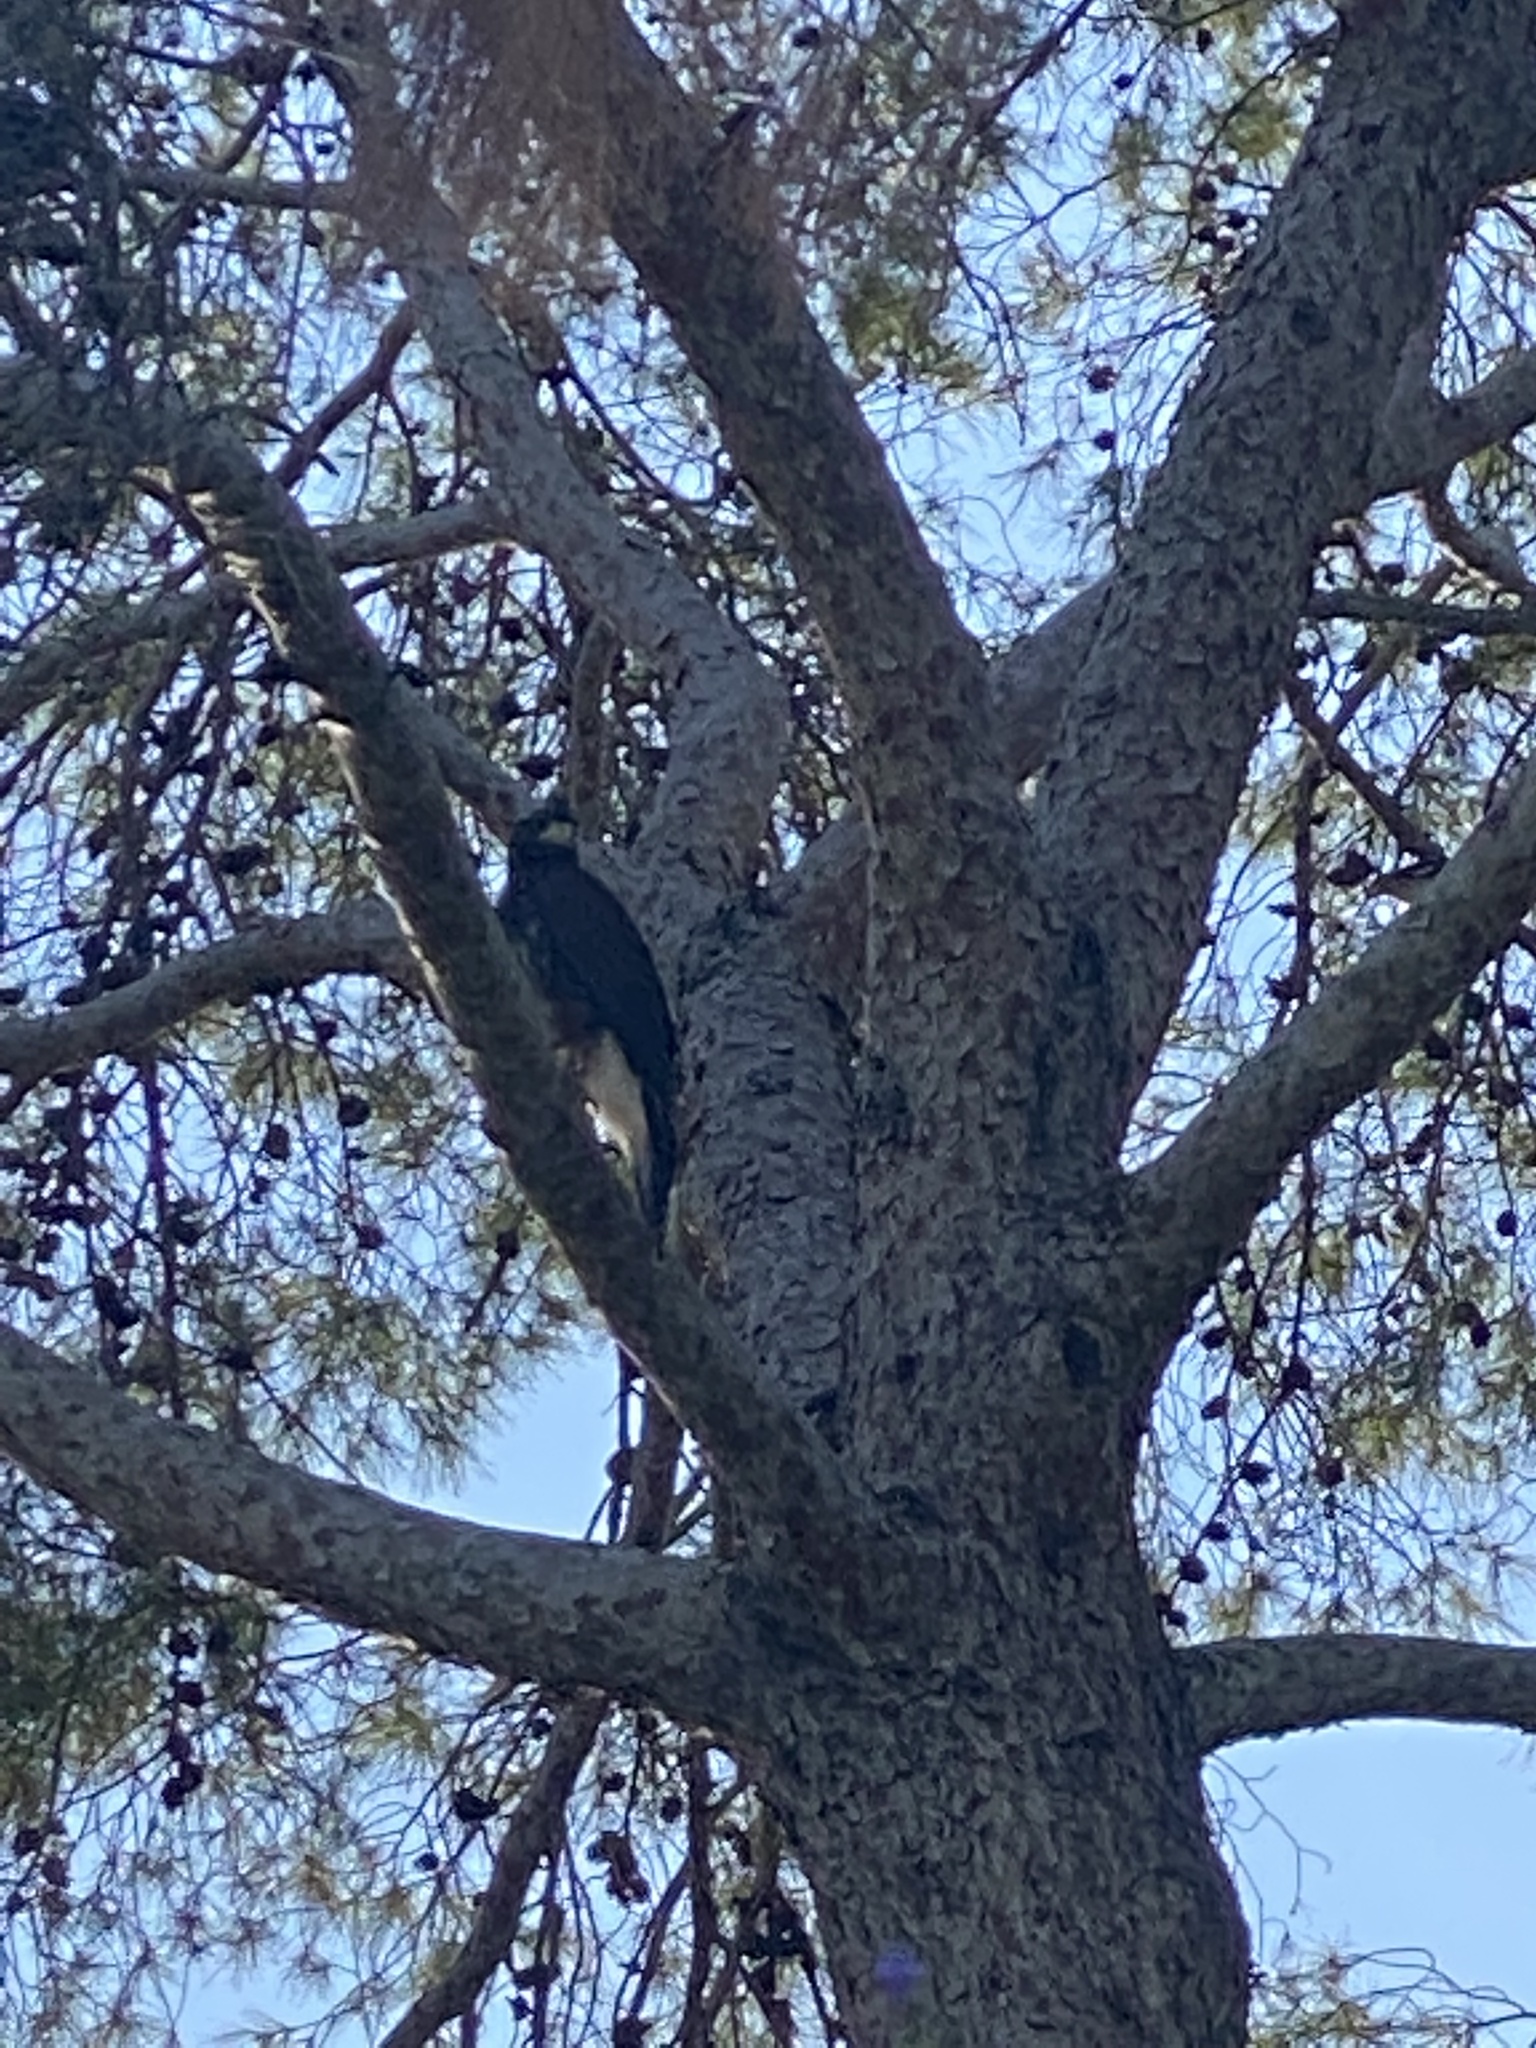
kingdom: Animalia
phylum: Chordata
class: Aves
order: Accipitriformes
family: Accipitridae
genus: Parabuteo
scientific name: Parabuteo unicinctus
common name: Harris's hawk
